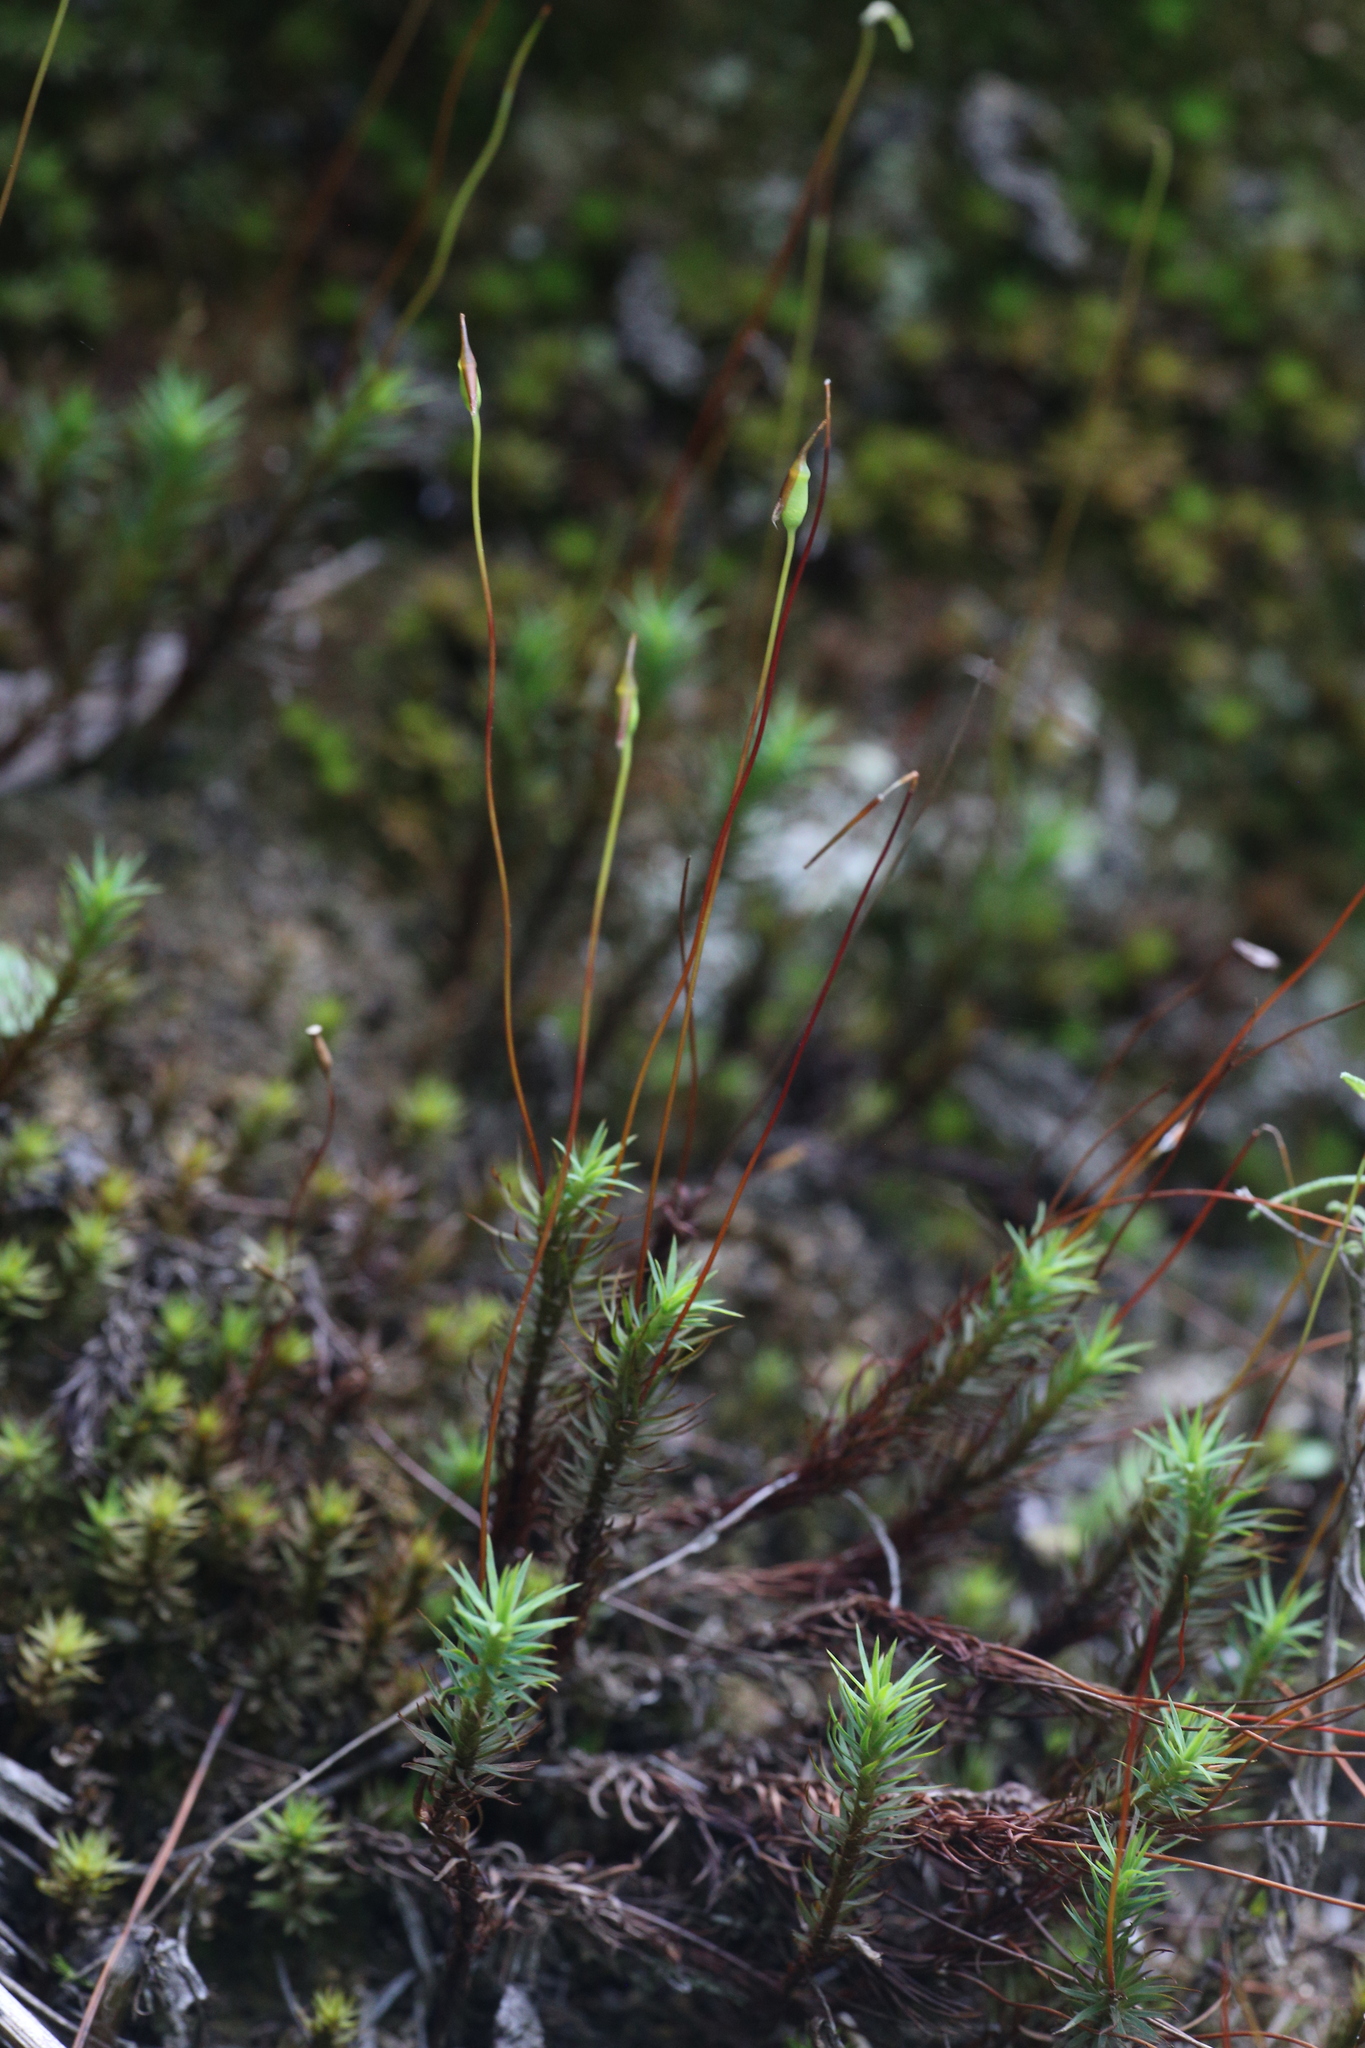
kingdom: Plantae
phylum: Bryophyta
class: Polytrichopsida
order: Polytrichales
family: Polytrichaceae
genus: Polytrichadelphus
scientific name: Polytrichadelphus magellanicus
